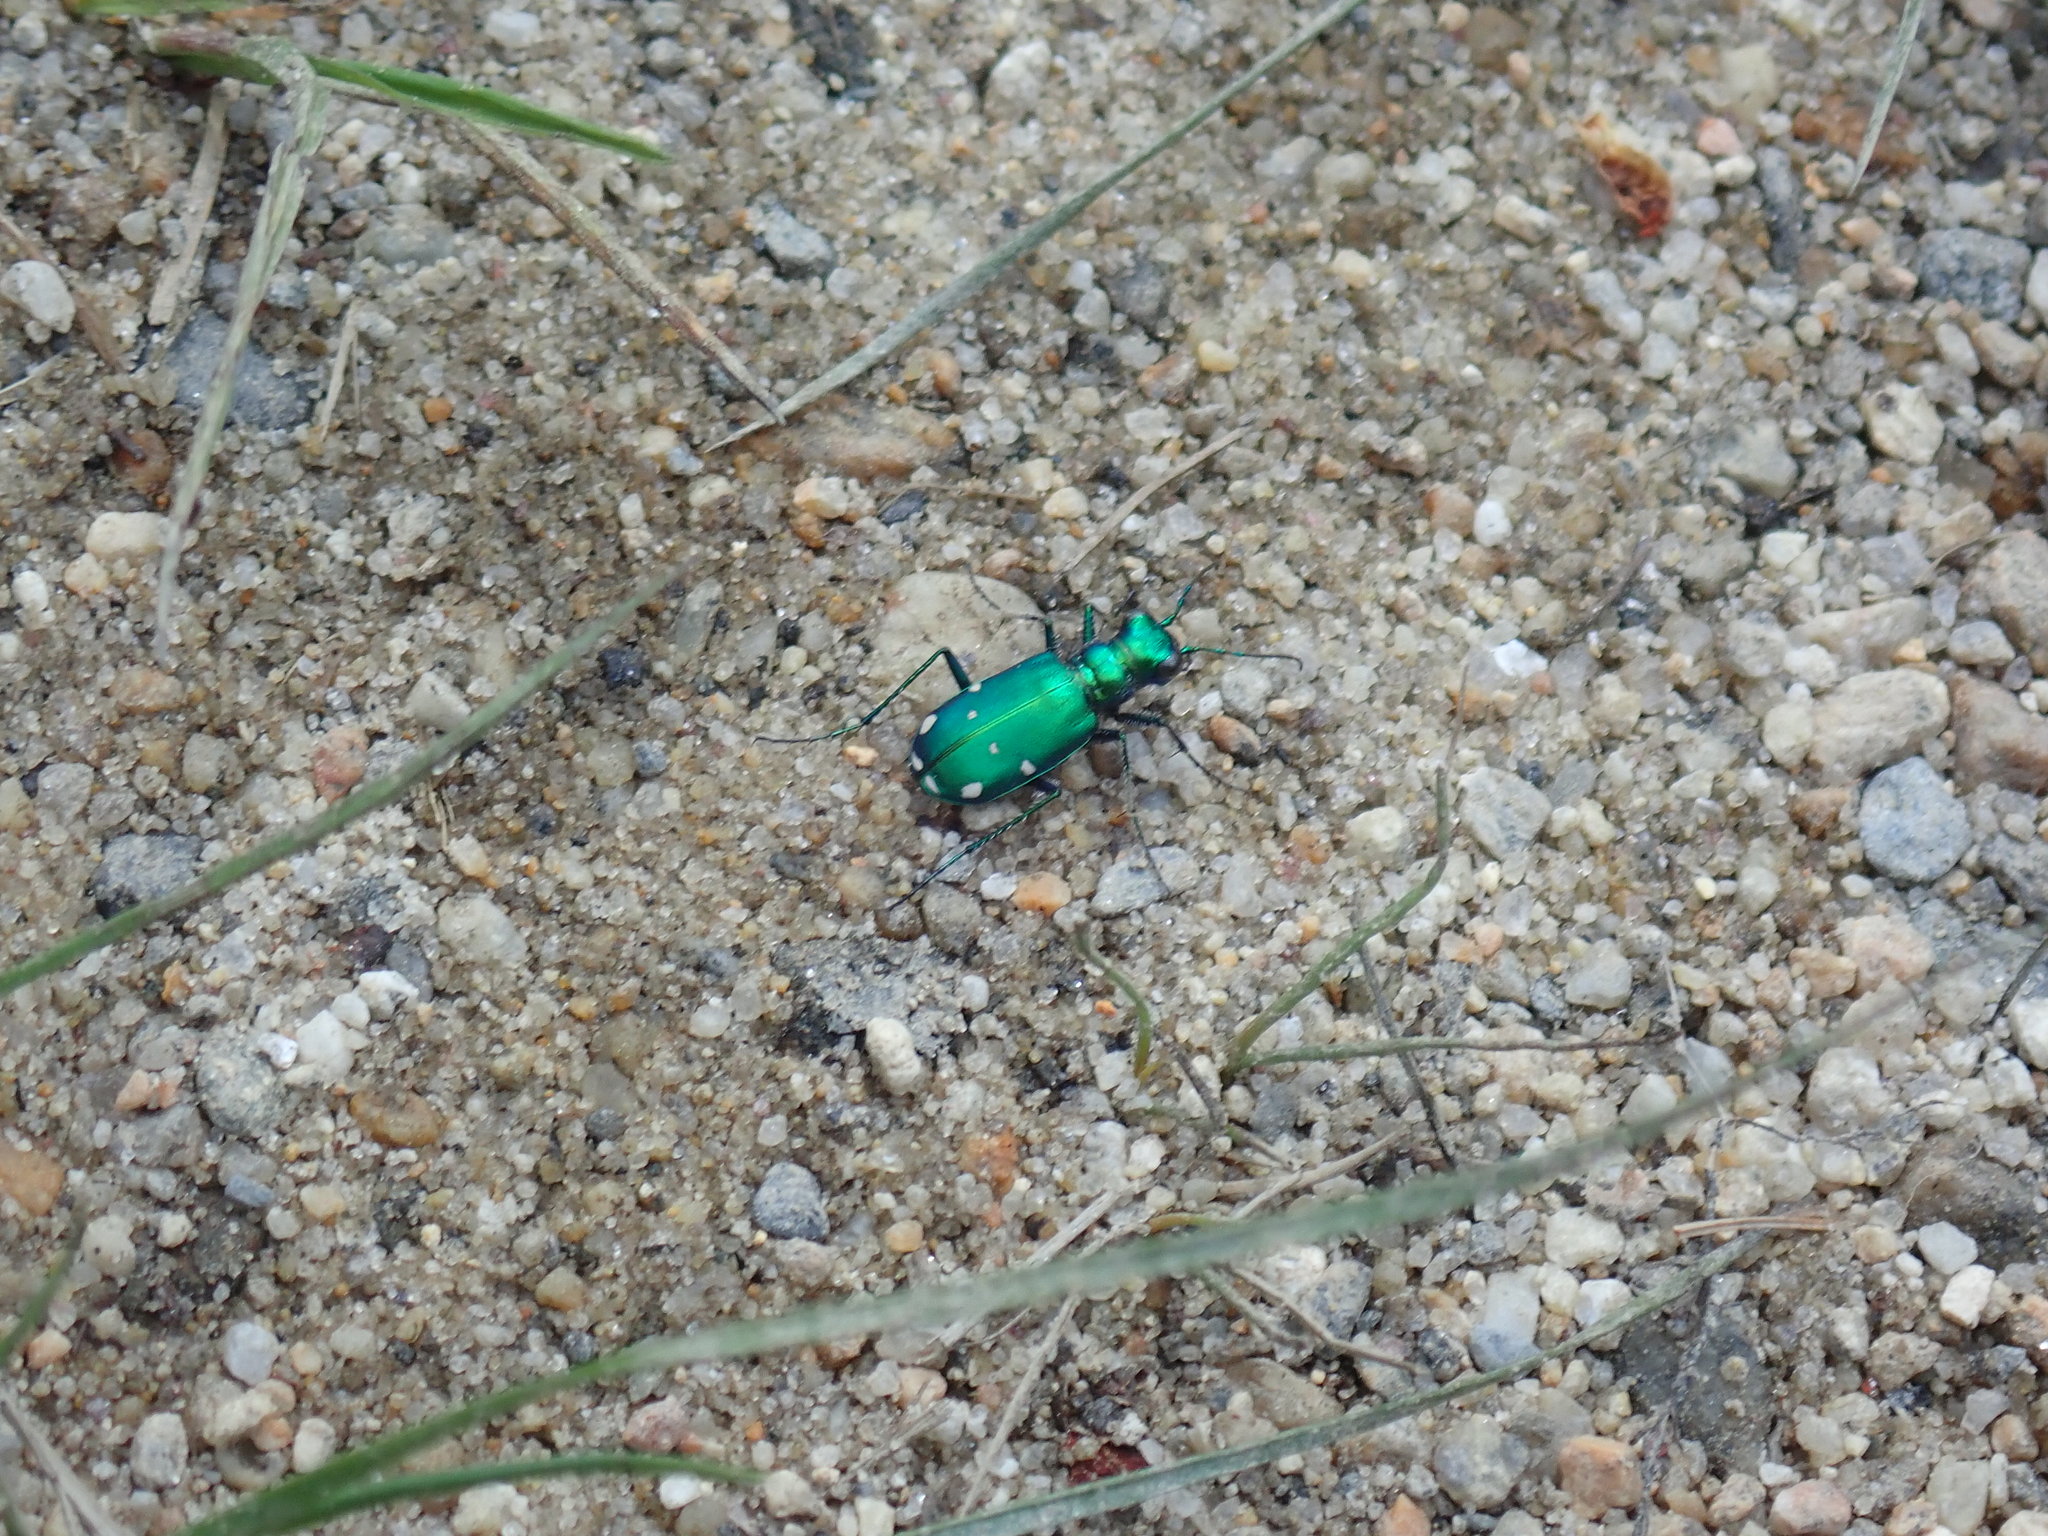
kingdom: Animalia
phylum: Arthropoda
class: Insecta
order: Coleoptera
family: Carabidae
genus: Cicindela
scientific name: Cicindela sexguttata
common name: Six-spotted tiger beetle
